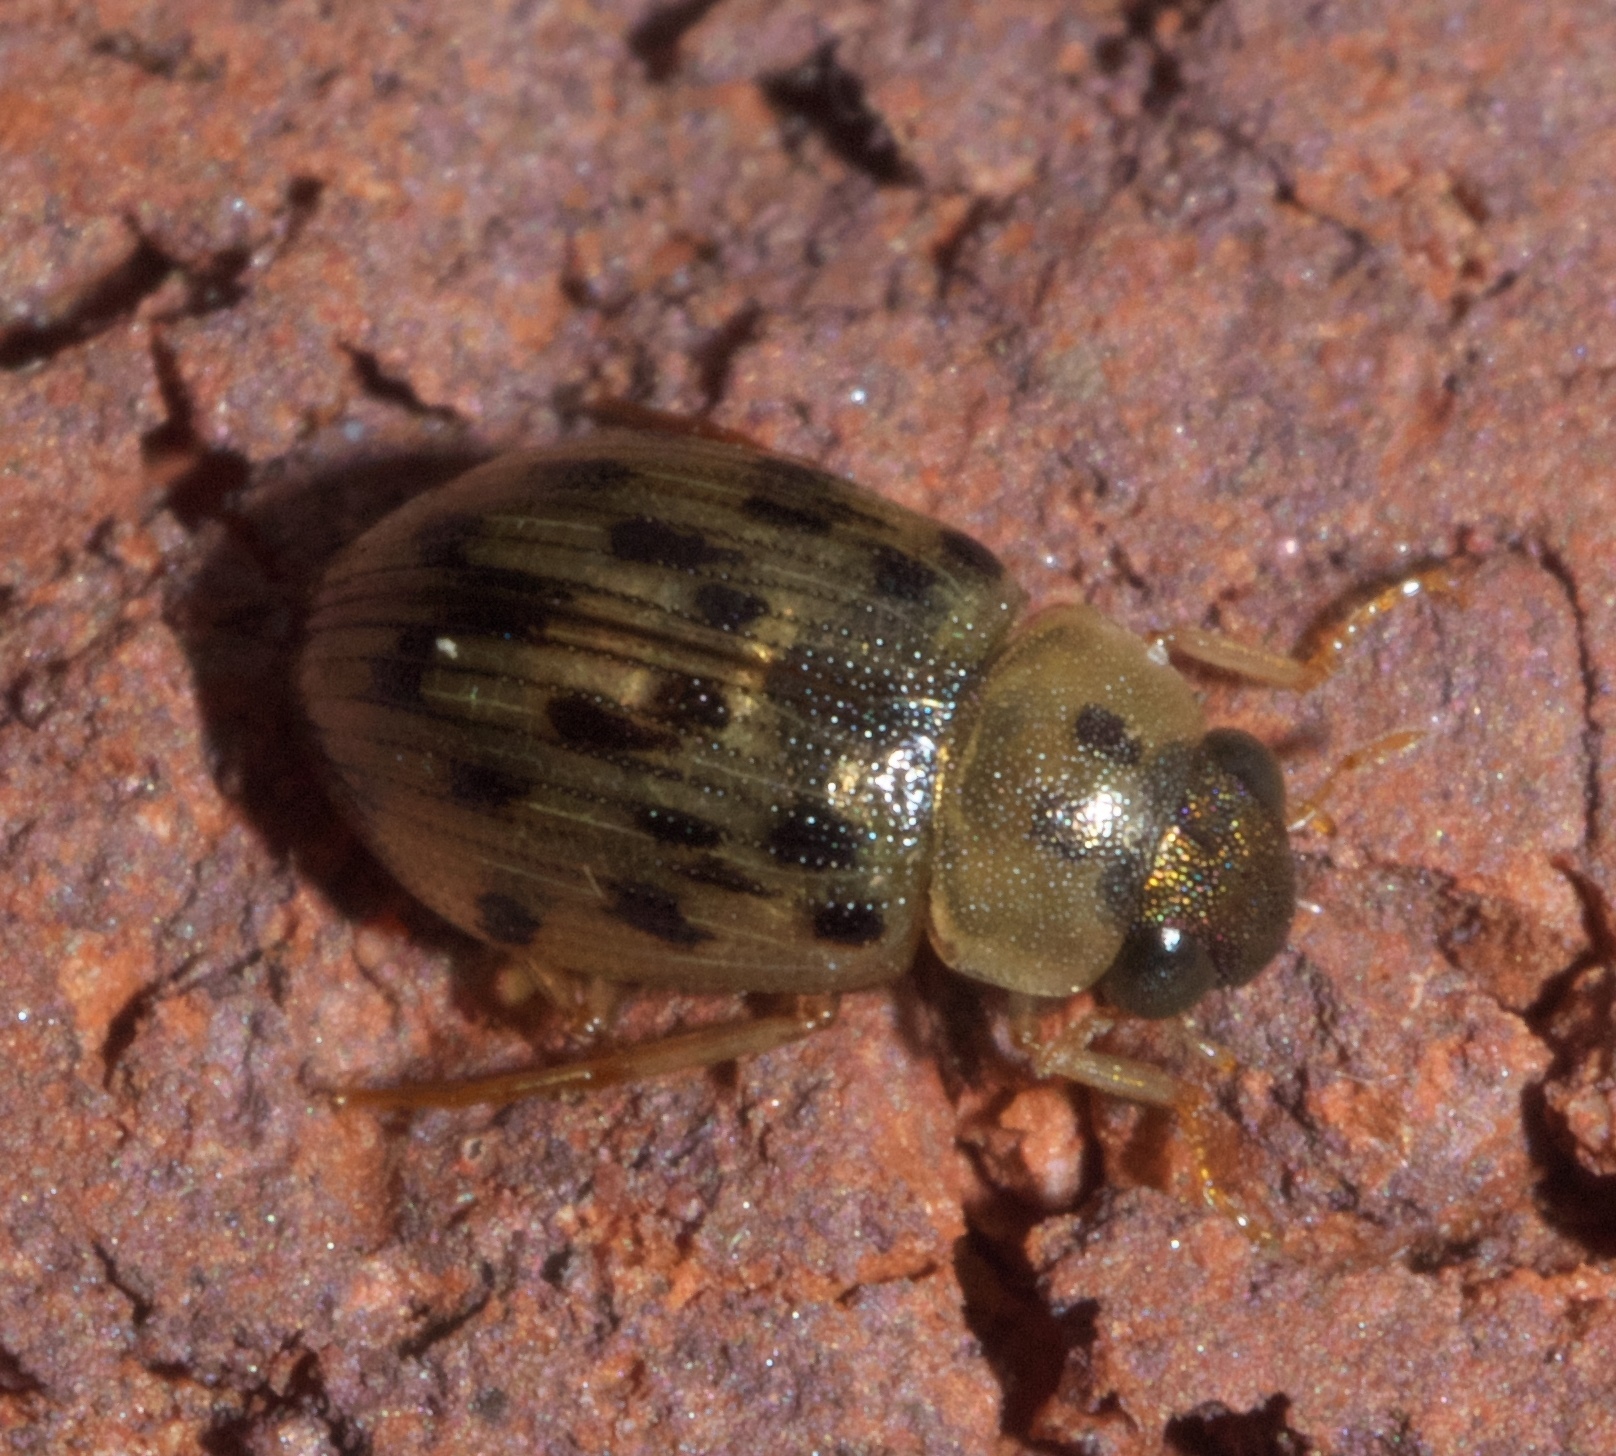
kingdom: Animalia
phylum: Arthropoda
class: Insecta
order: Coleoptera
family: Hydrophilidae
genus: Berosus
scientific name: Berosus pantherinus
